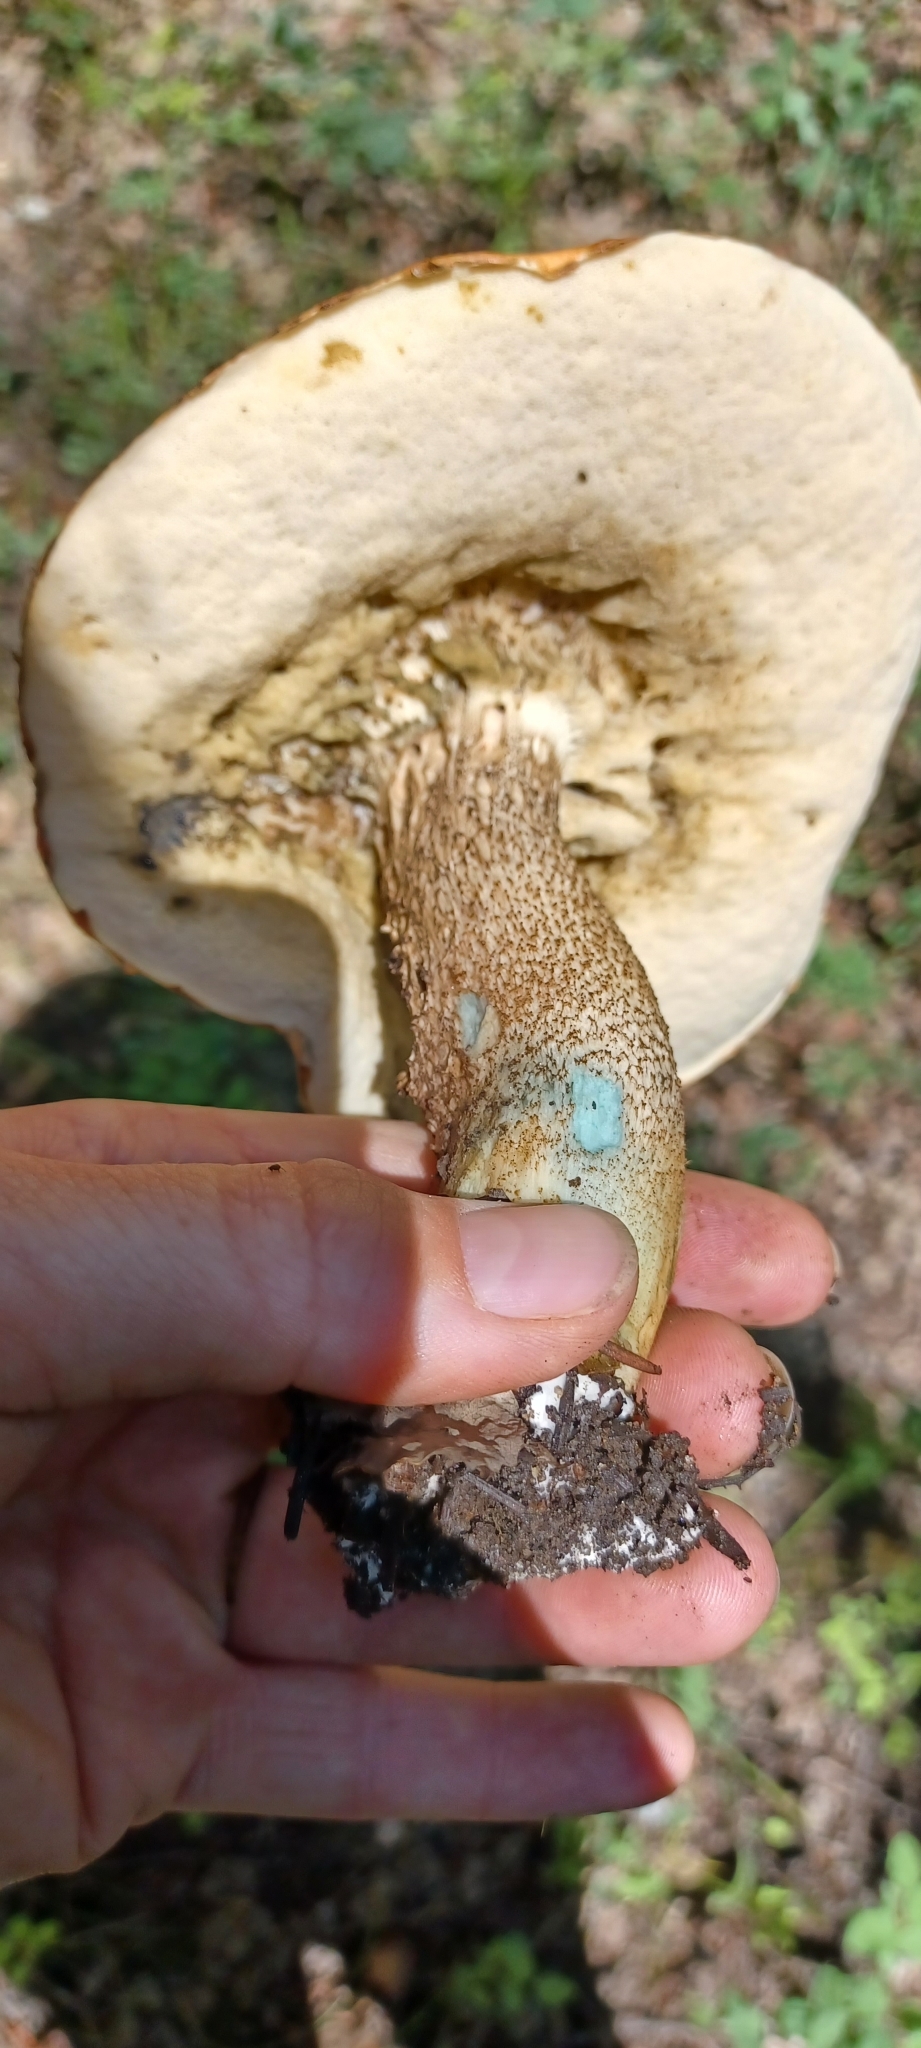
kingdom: Fungi
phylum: Basidiomycota
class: Agaricomycetes
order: Boletales
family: Boletaceae
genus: Leccinum
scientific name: Leccinum insigne
